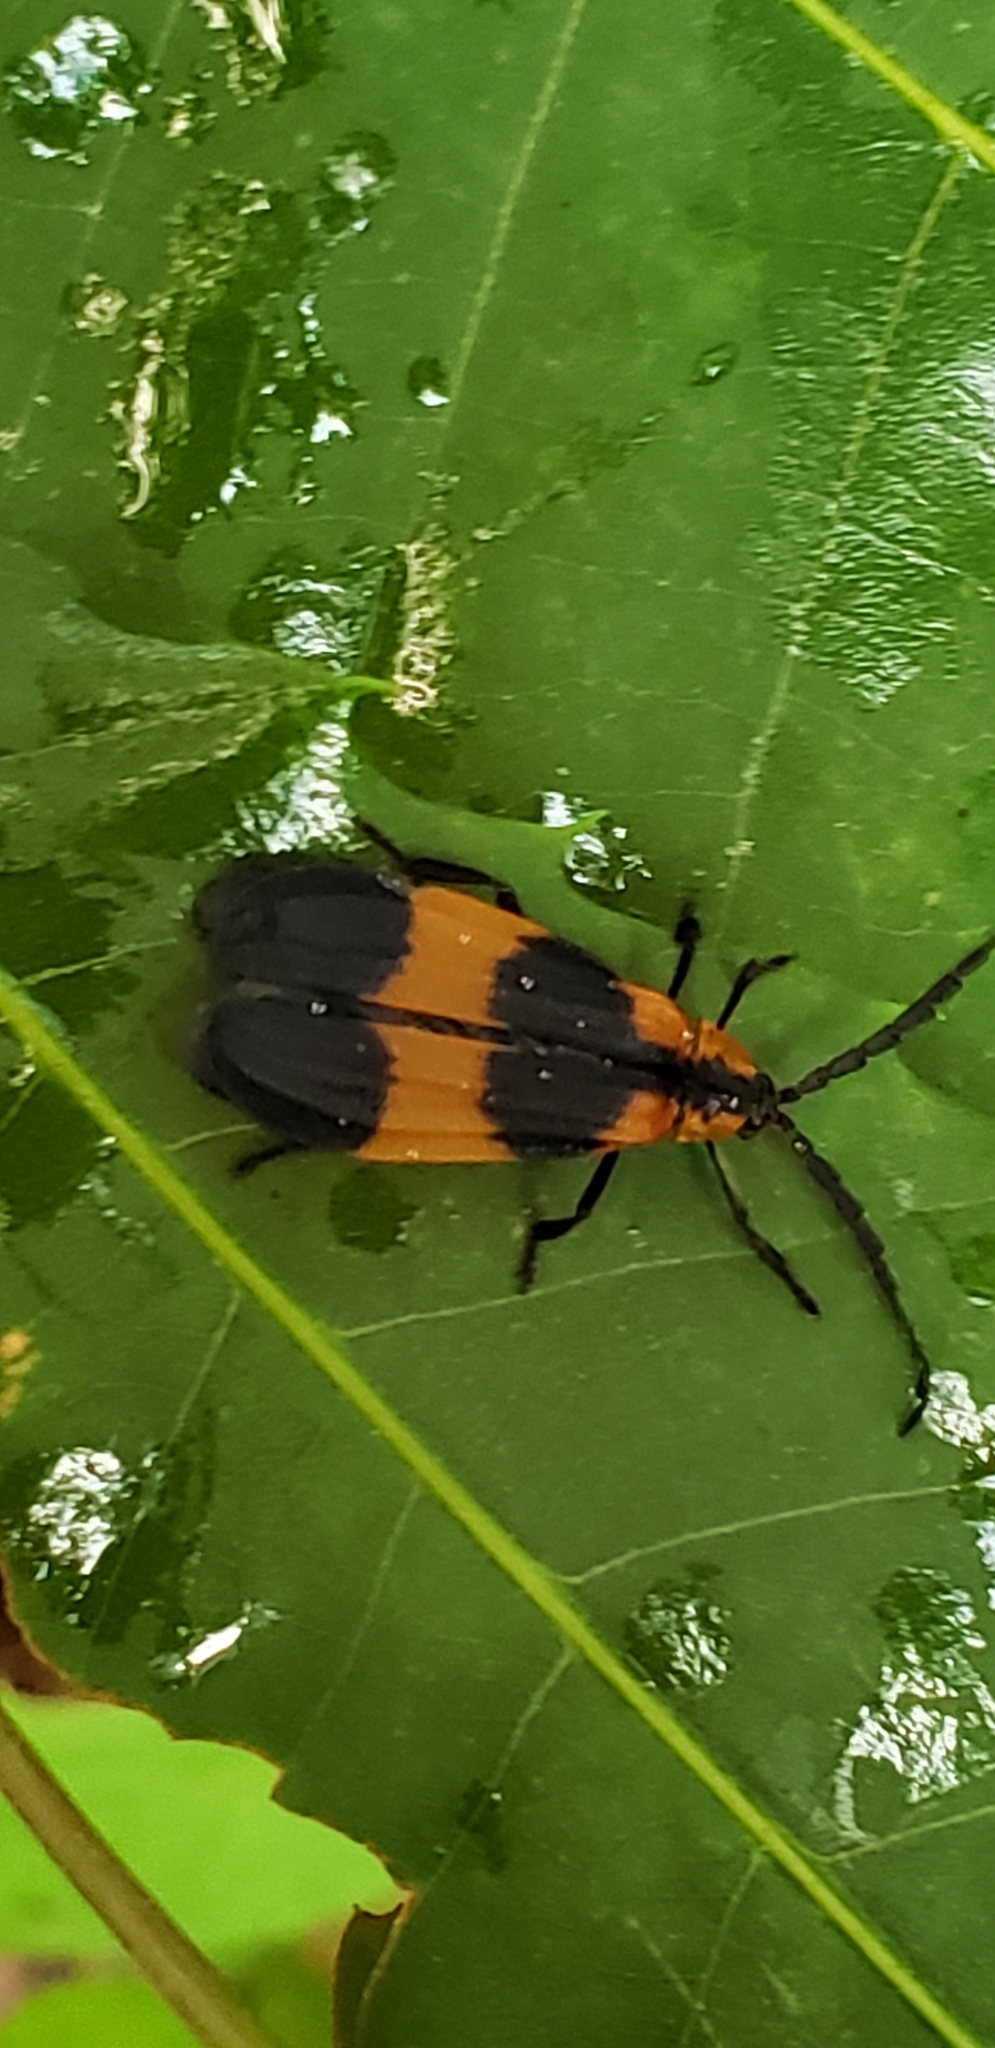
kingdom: Animalia
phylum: Arthropoda
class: Insecta
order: Coleoptera
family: Lycidae
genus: Calopteron
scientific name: Calopteron reticulatum
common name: Banded net-winged beetle
